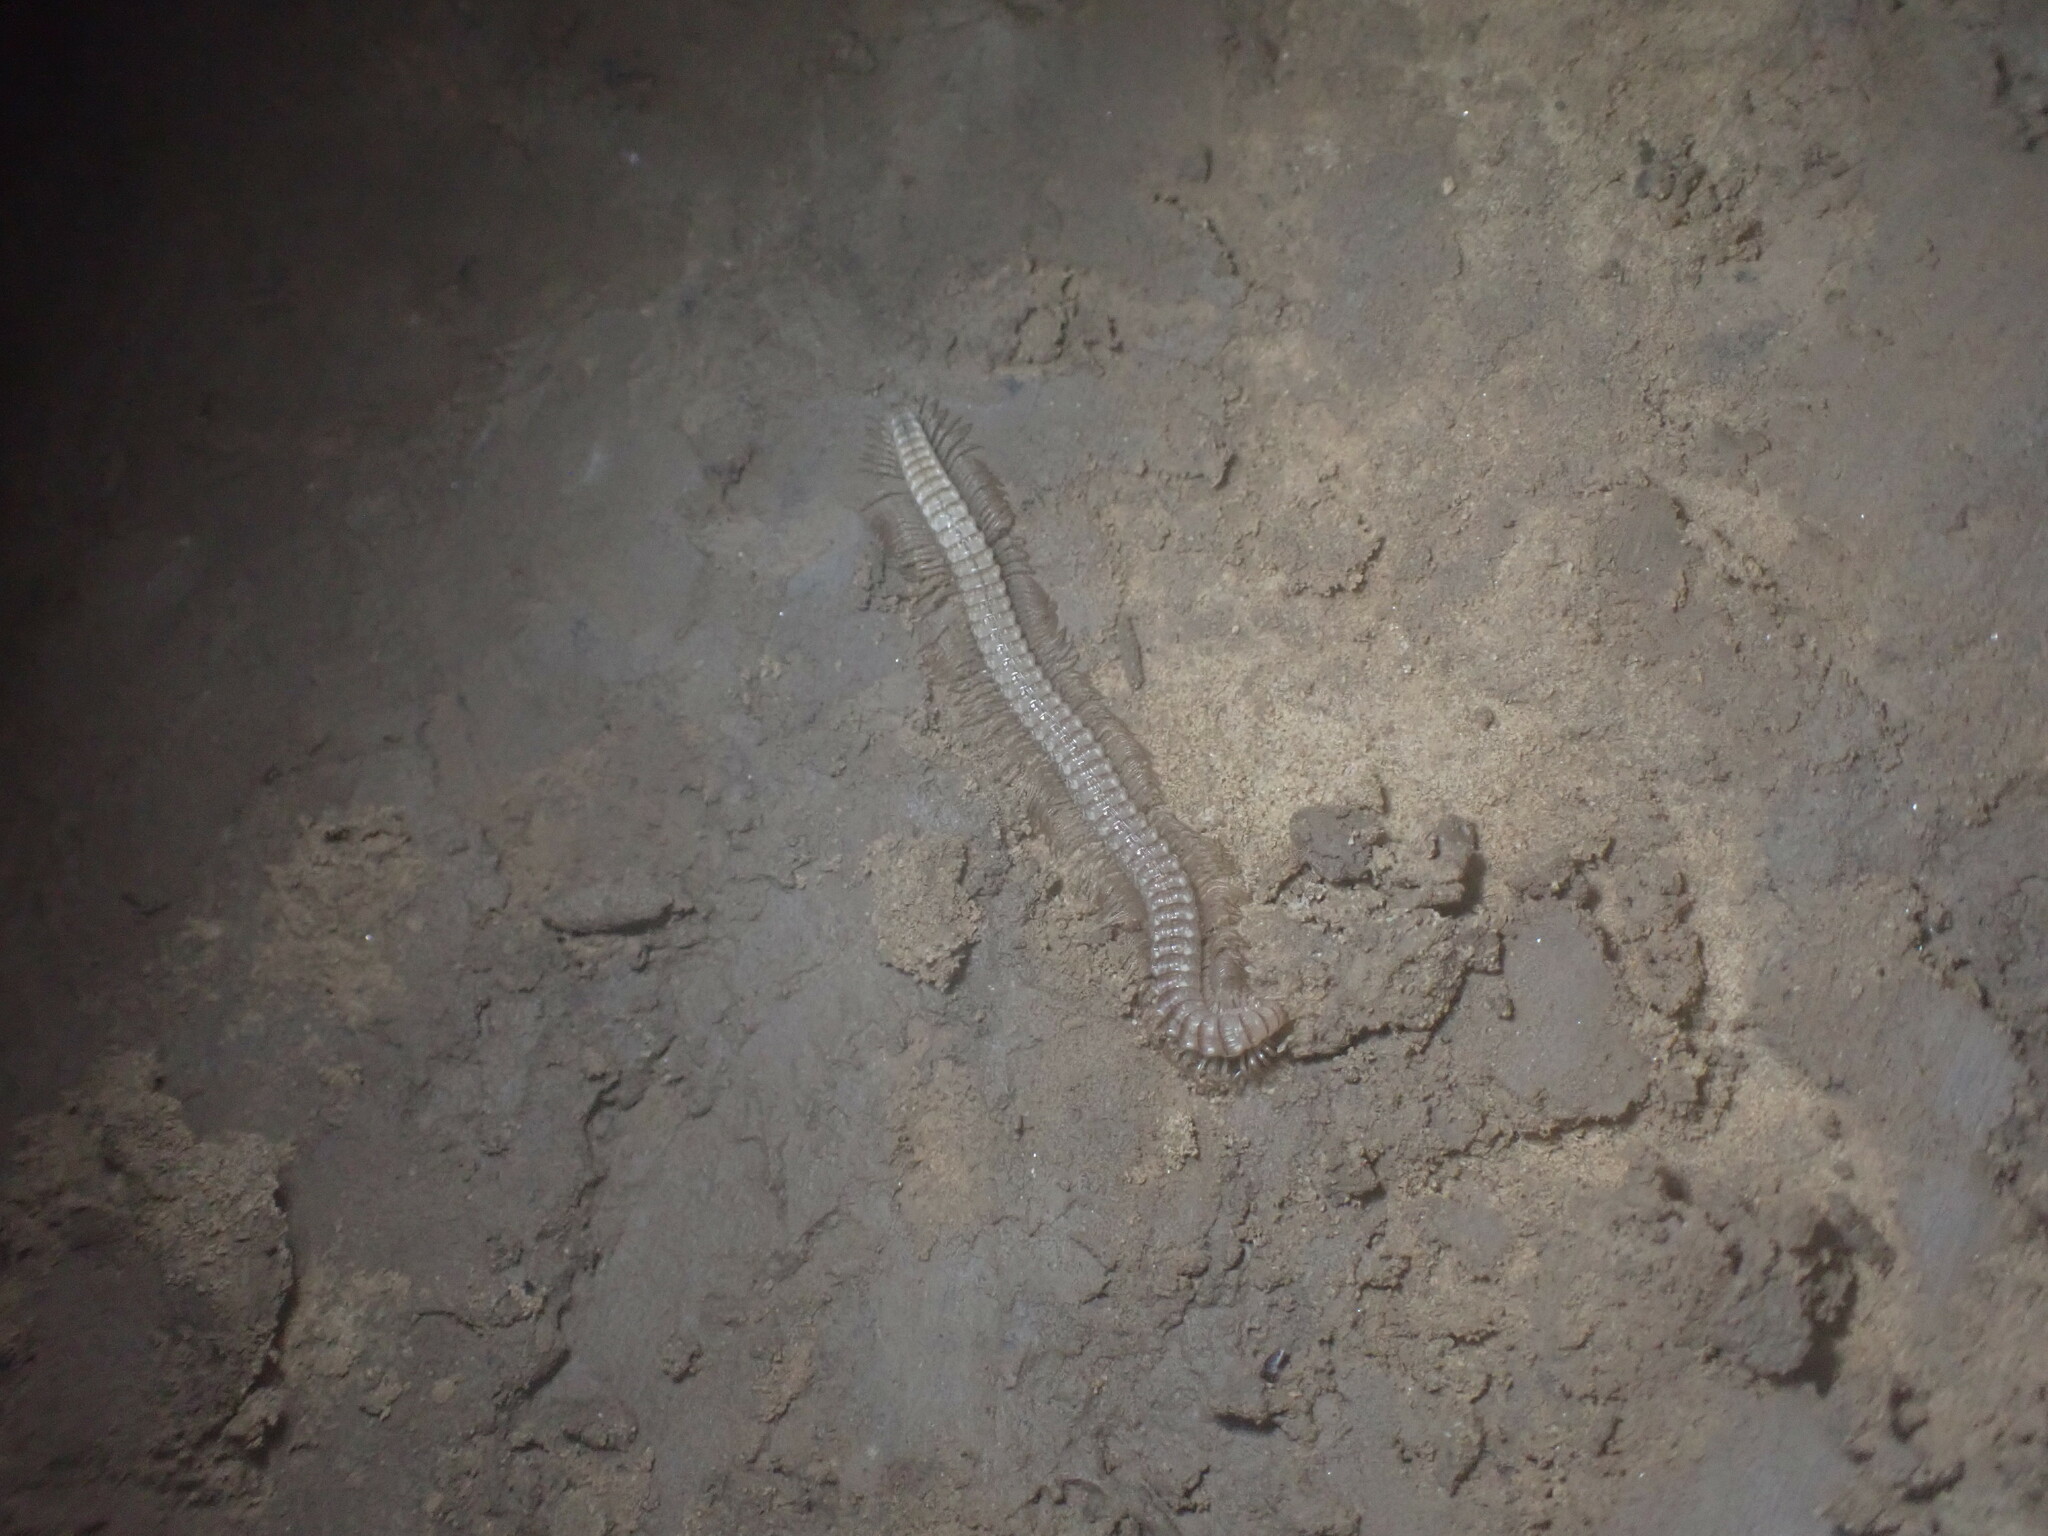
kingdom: Animalia
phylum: Arthropoda
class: Diplopoda
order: Callipodida
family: Abacionidae
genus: Tetracion
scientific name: Tetracion jonesi
